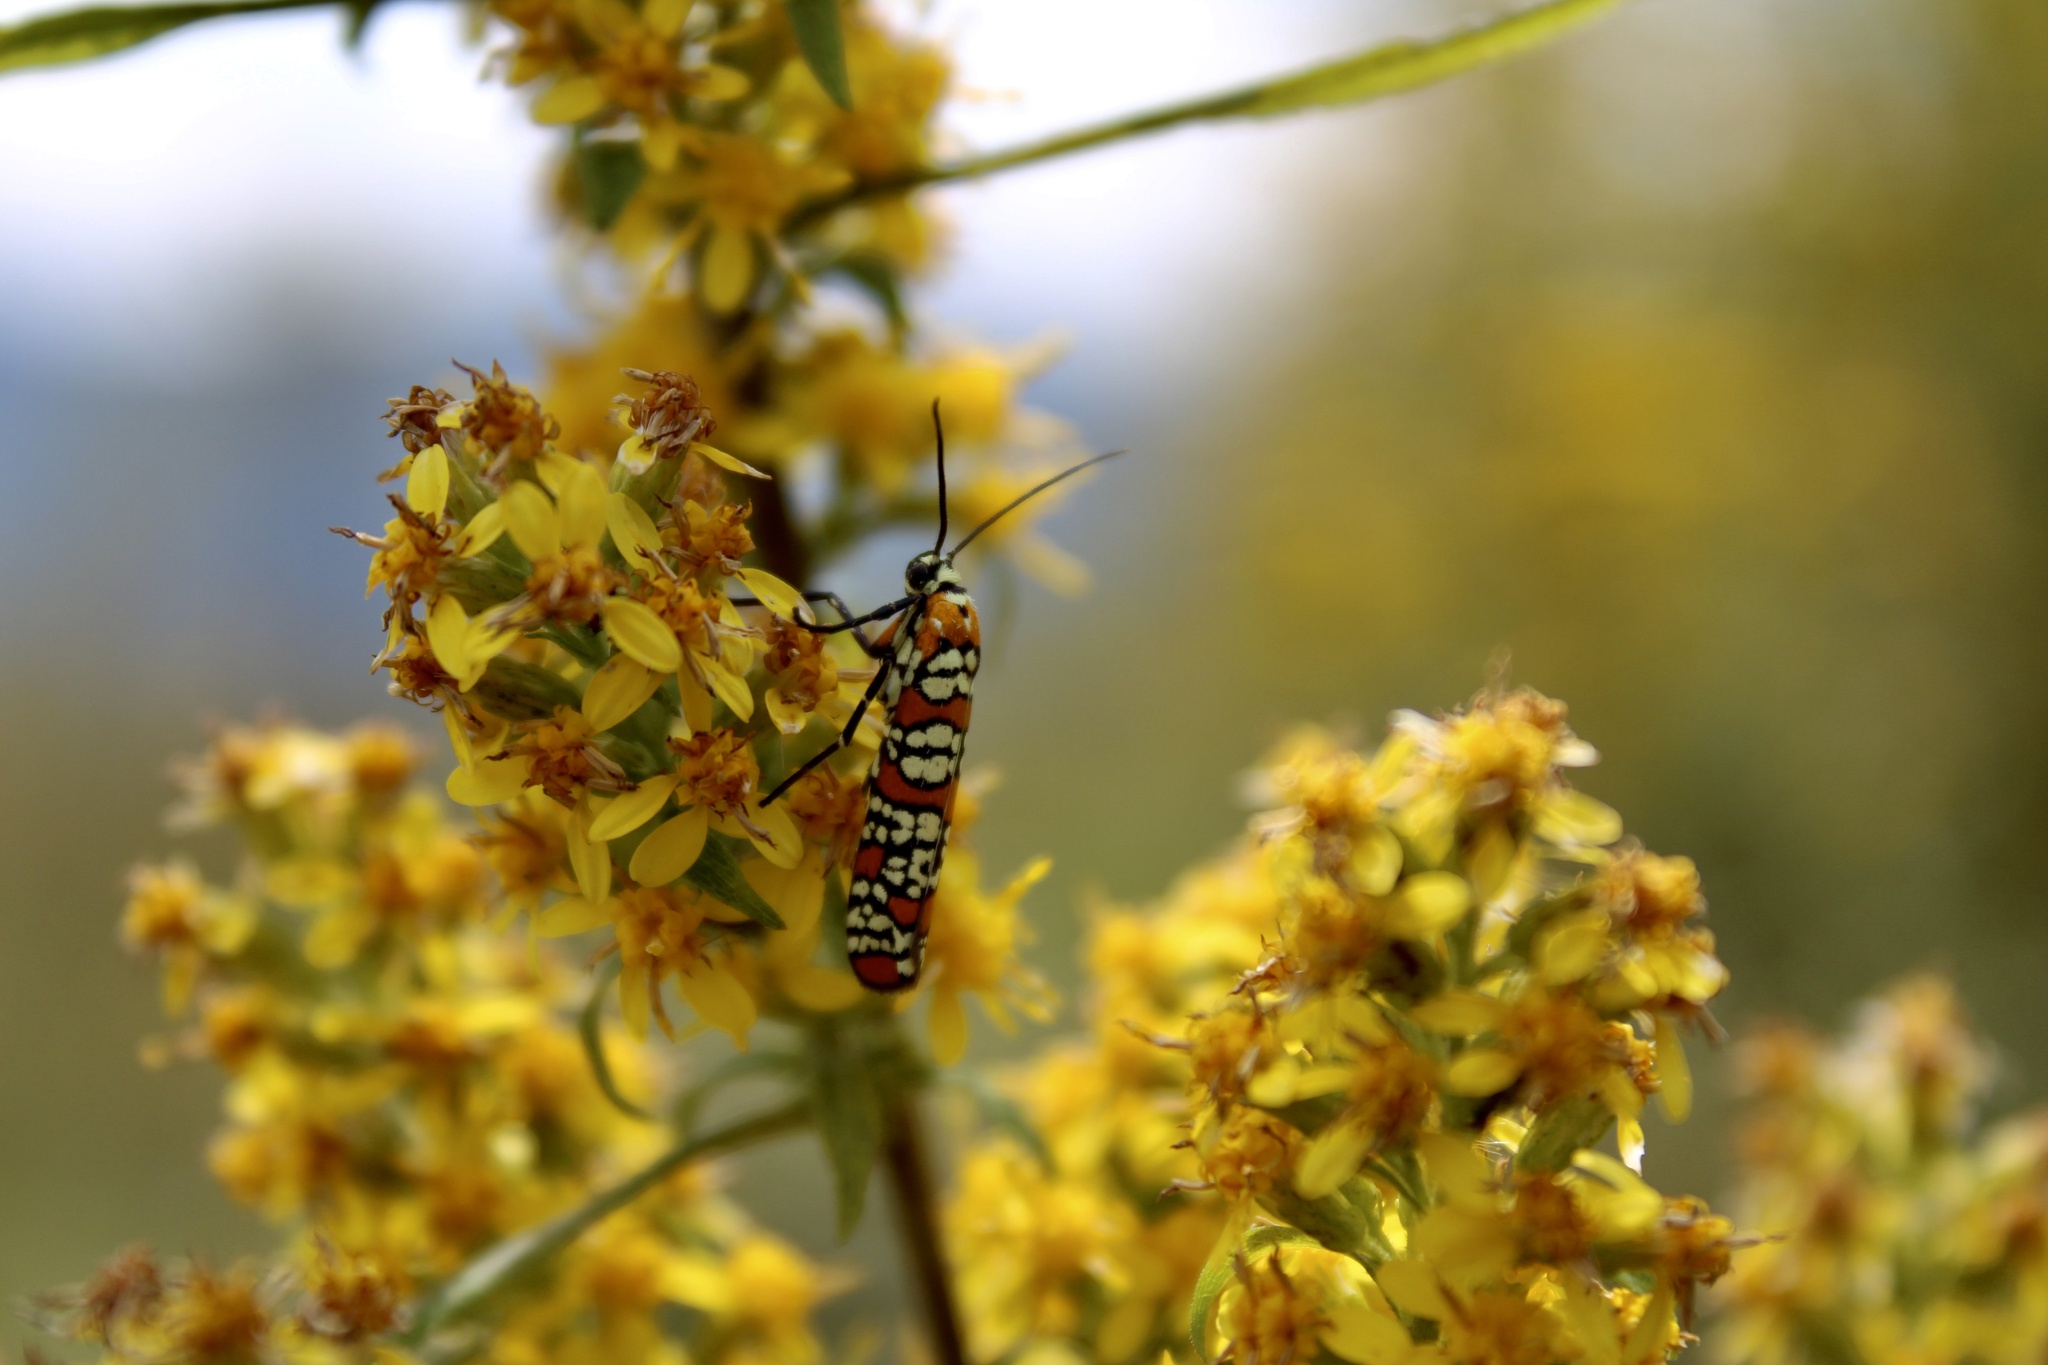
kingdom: Animalia
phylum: Arthropoda
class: Insecta
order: Lepidoptera
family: Attevidae
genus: Atteva
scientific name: Atteva punctella
